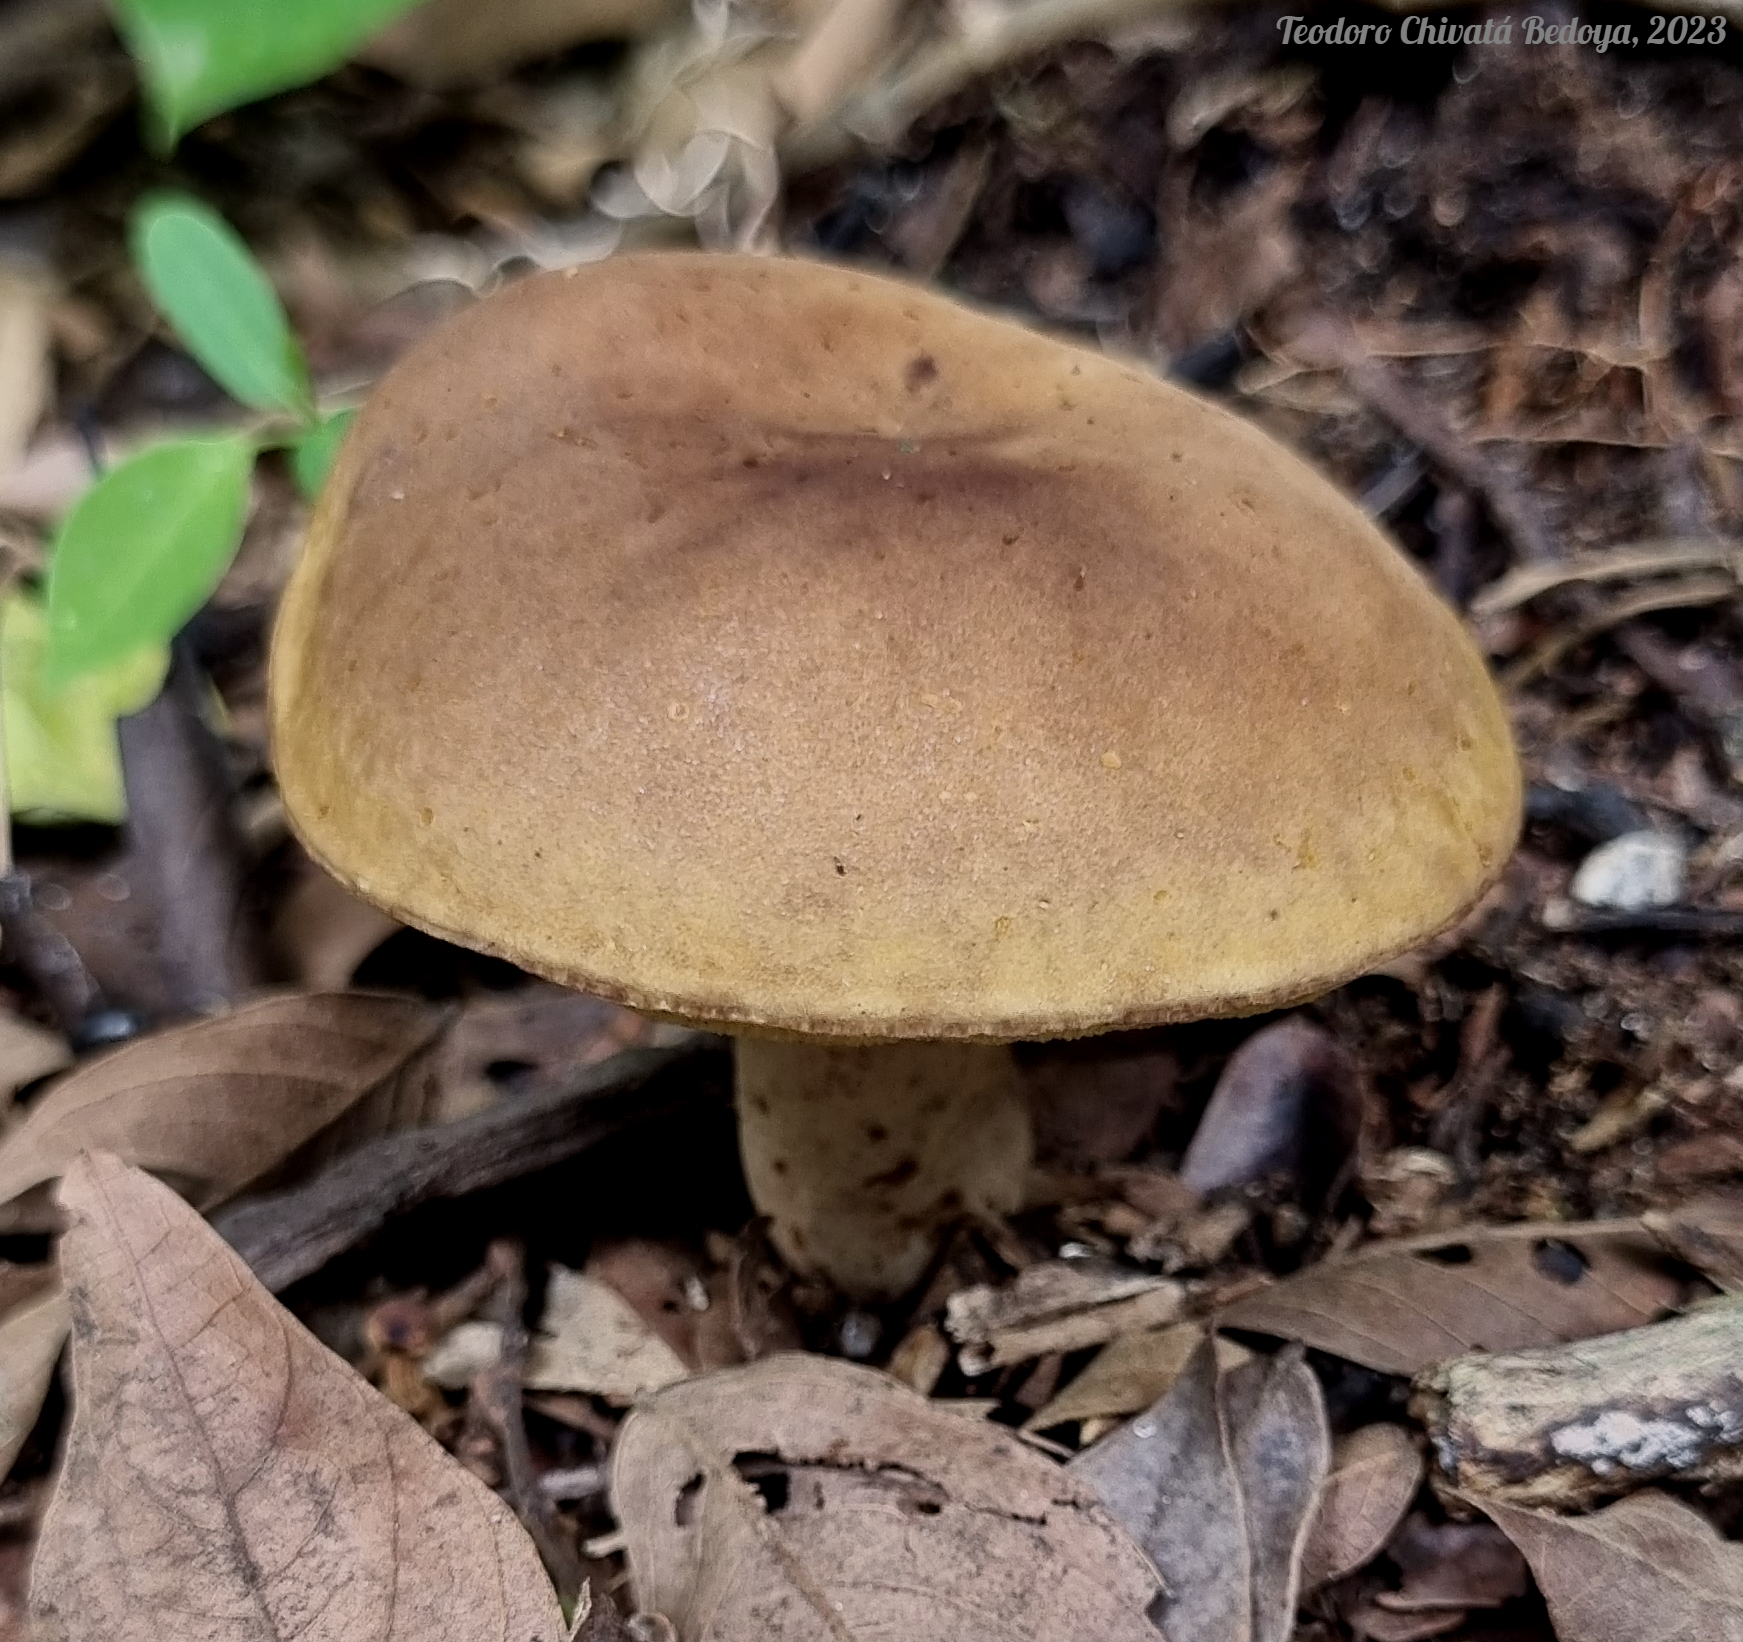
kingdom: Fungi
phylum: Basidiomycota
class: Agaricomycetes
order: Boletales
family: Boletinellaceae
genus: Phlebopus
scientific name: Phlebopus beniensis
